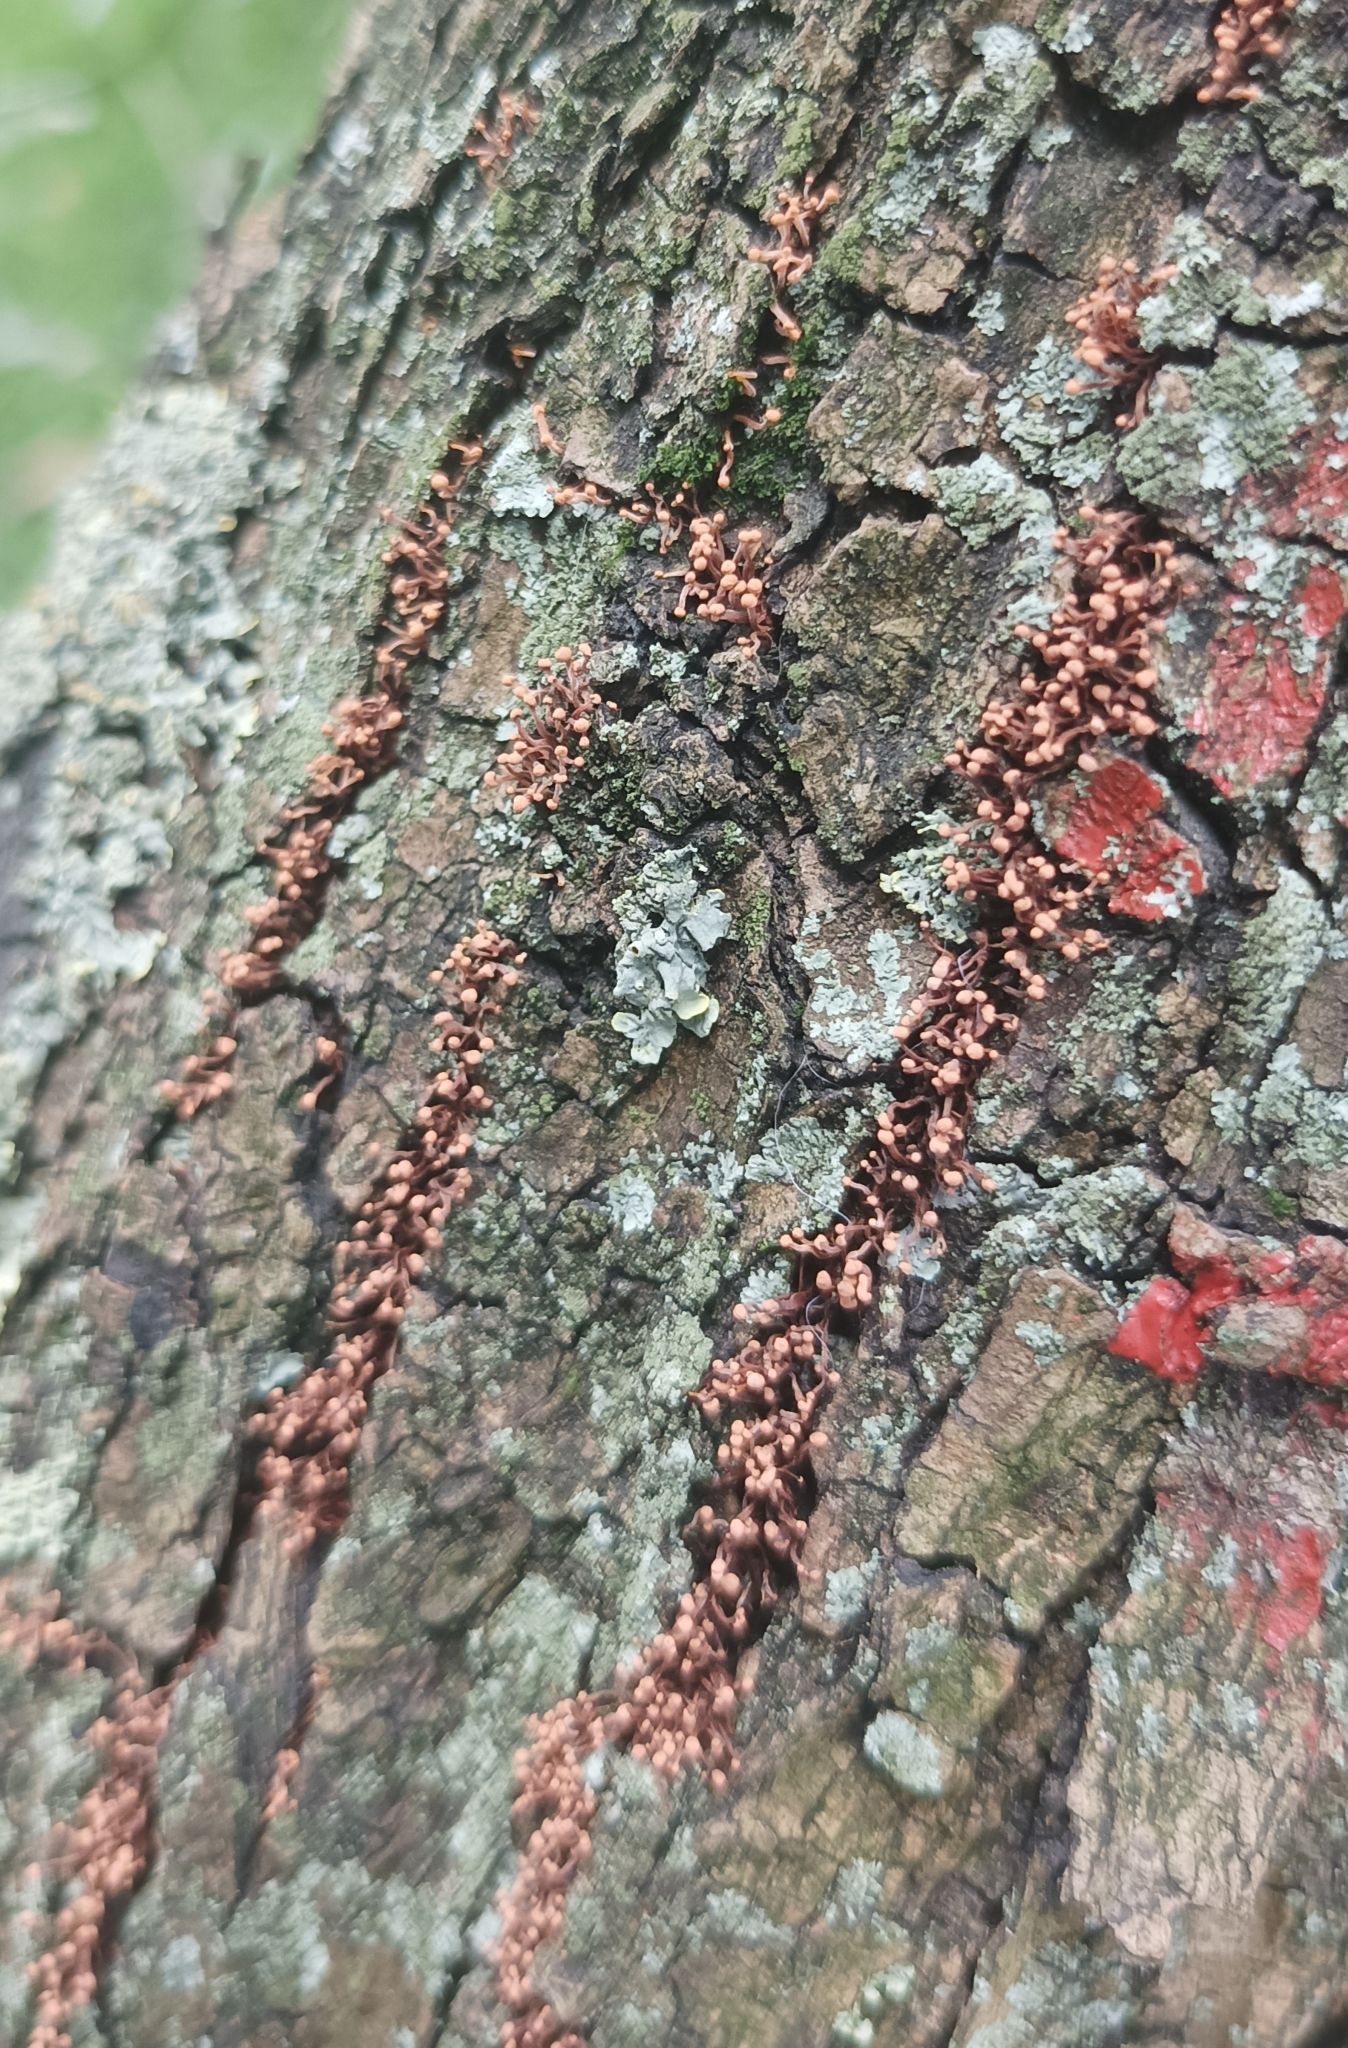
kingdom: Fungi
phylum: Ascomycota
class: Sordariomycetes
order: Hypocreales
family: Nectriaceae
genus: Nectria
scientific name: Nectria pseudotrichia
